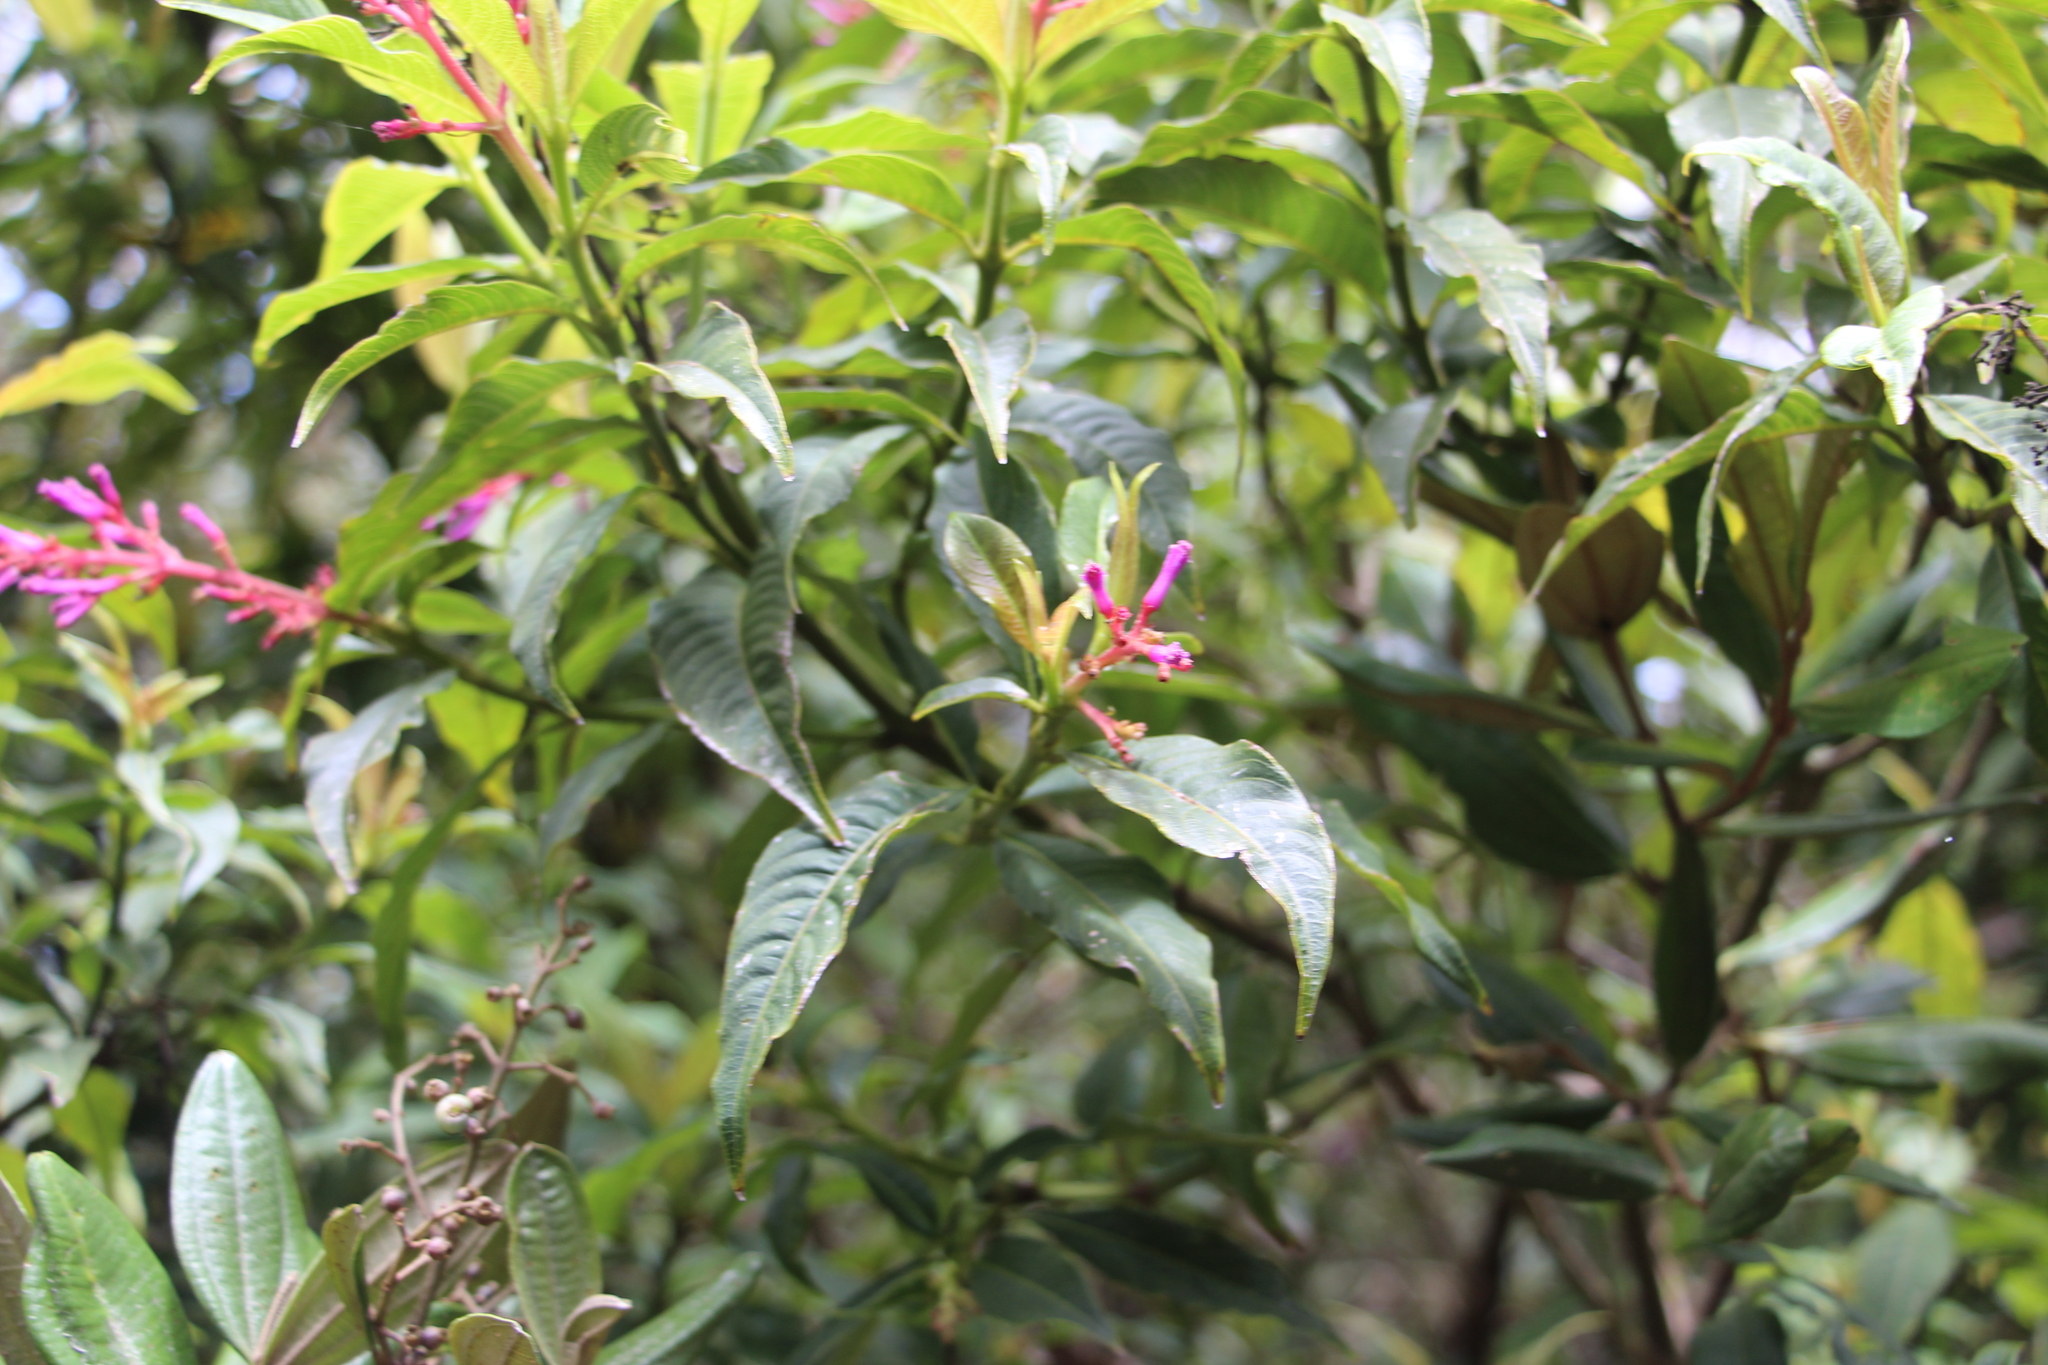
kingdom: Plantae
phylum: Tracheophyta
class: Magnoliopsida
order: Gentianales
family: Rubiaceae
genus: Palicourea
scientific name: Palicourea angustifolia
